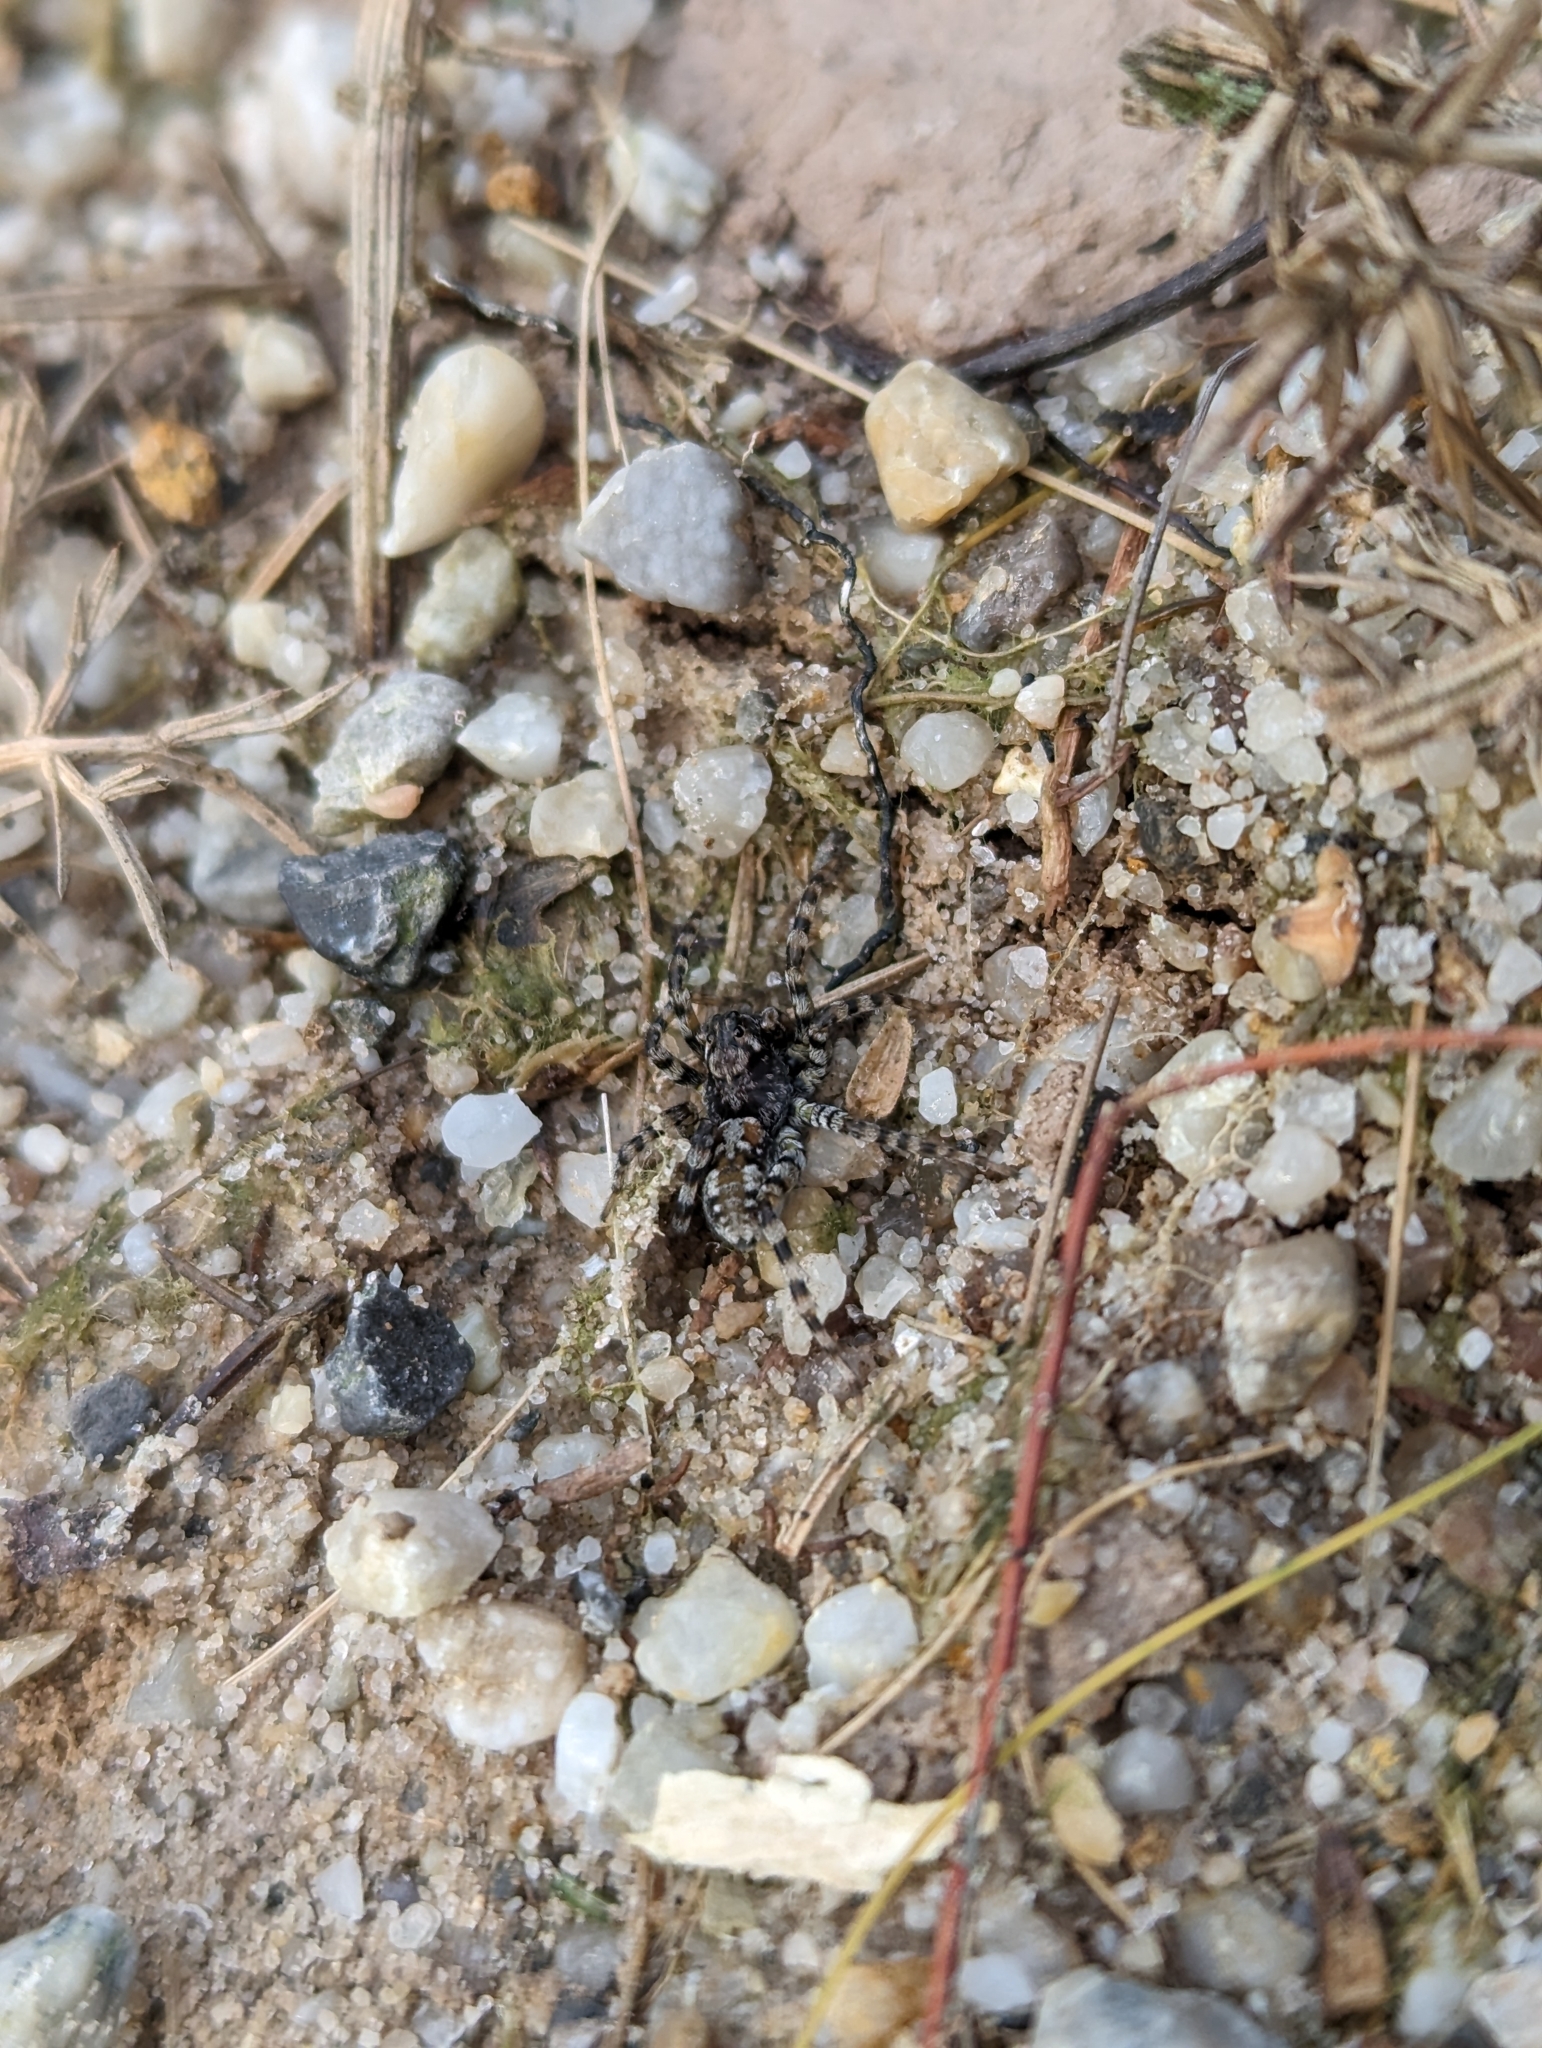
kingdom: Animalia
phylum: Arthropoda
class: Arachnida
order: Araneae
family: Lycosidae
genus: Arctosa
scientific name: Arctosa perita
